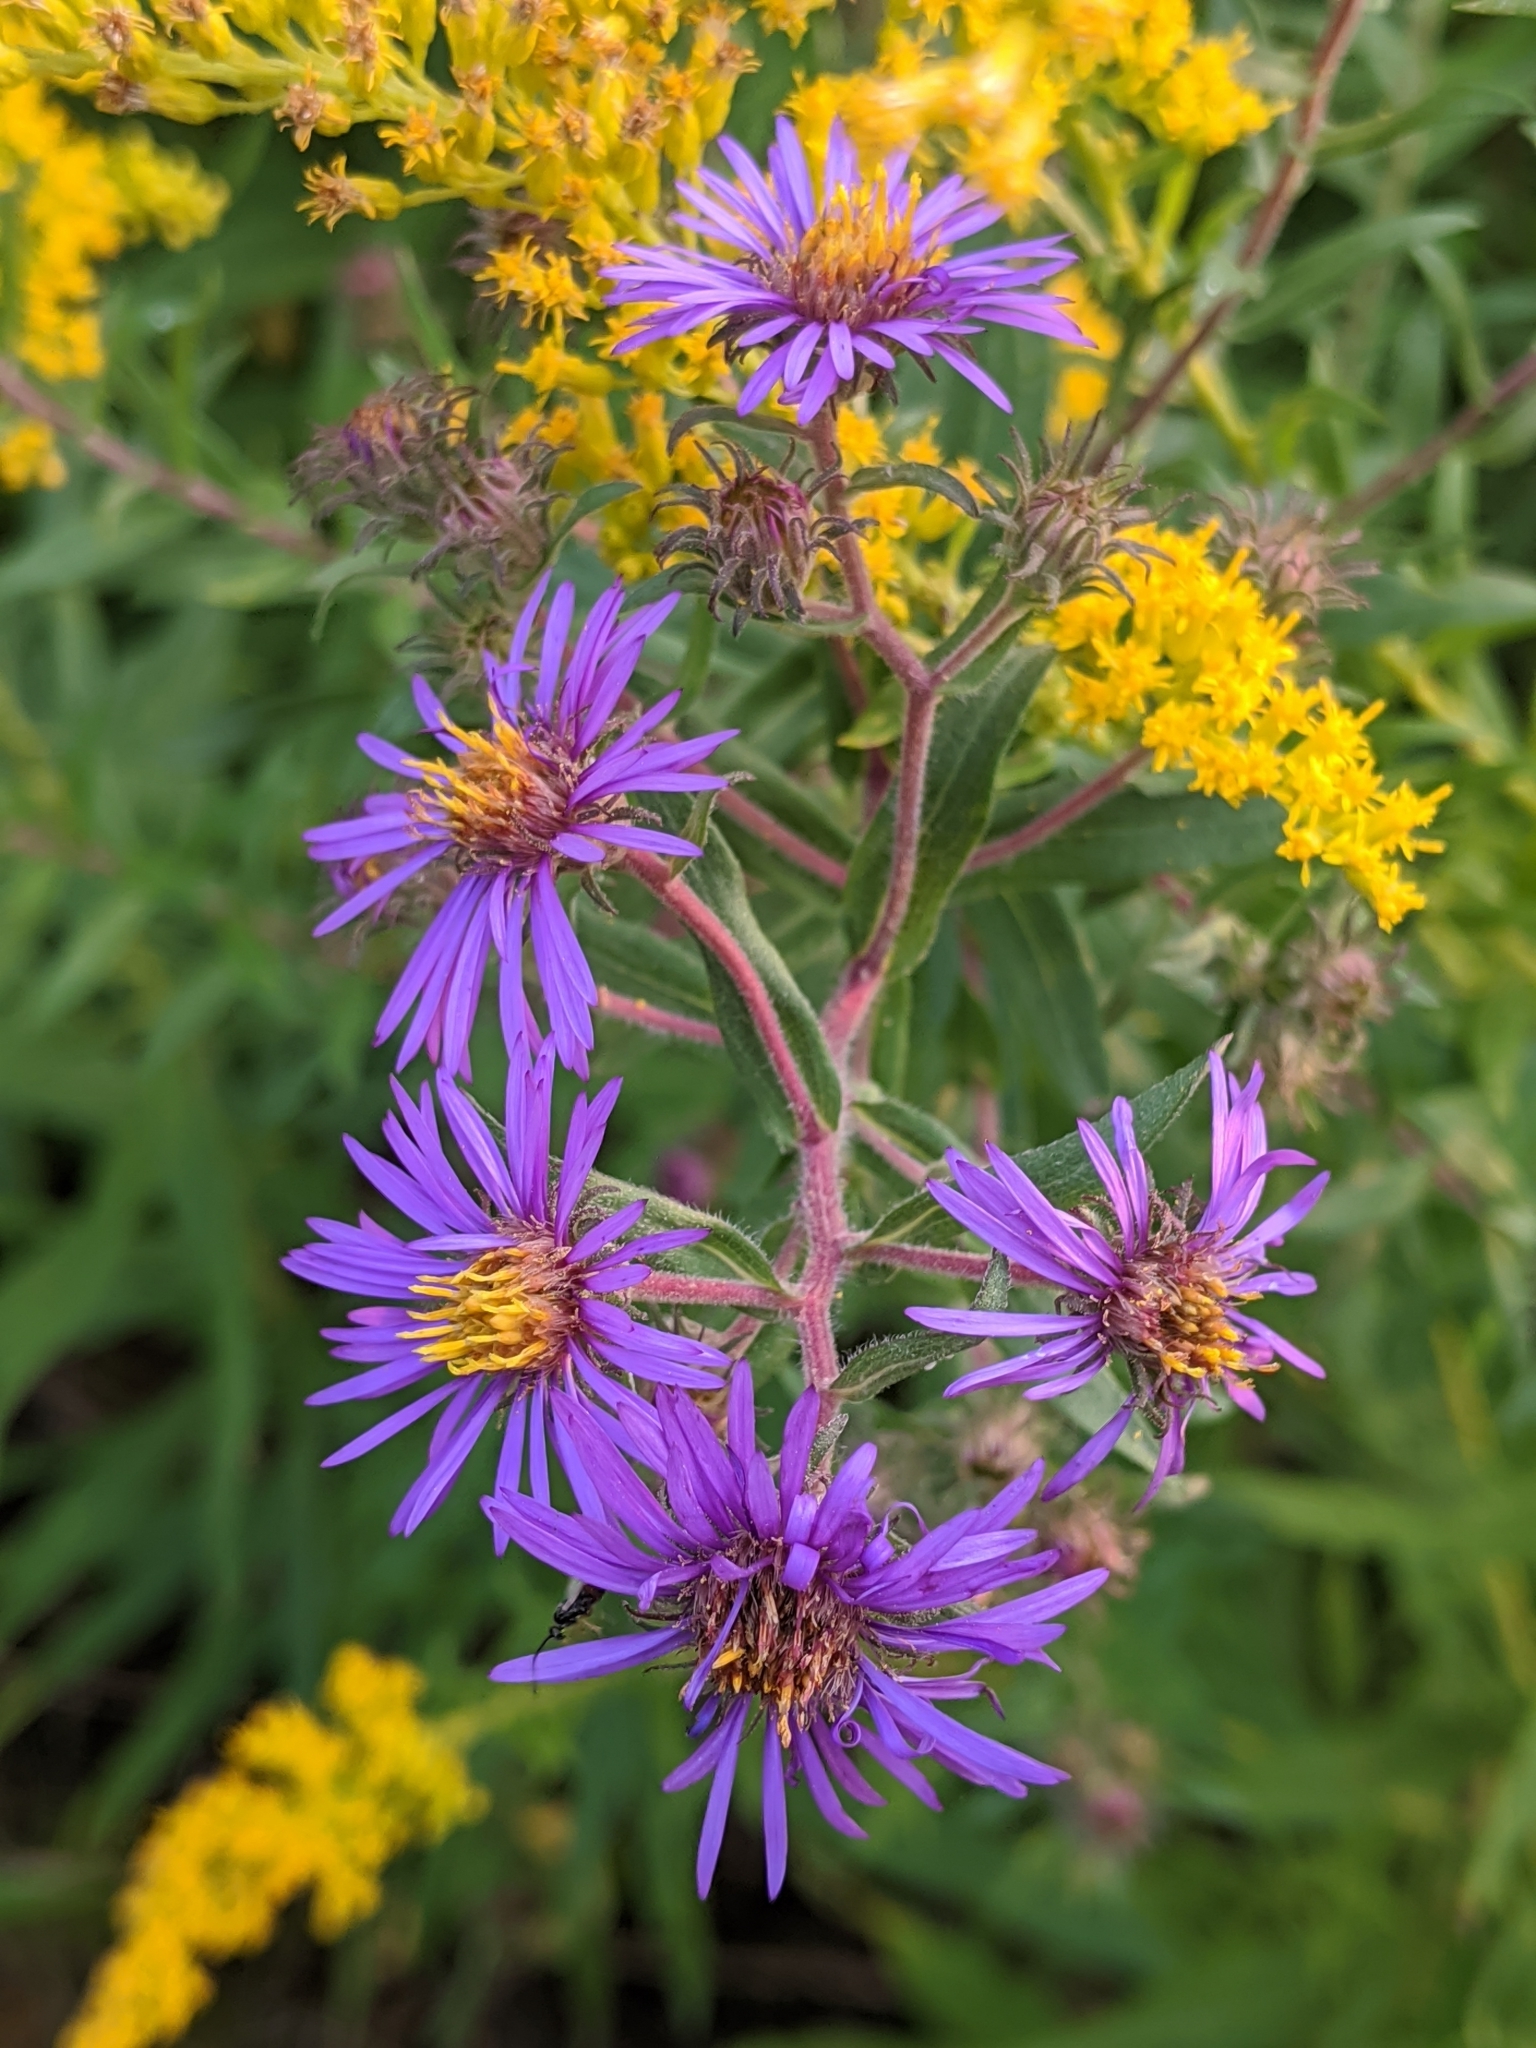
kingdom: Plantae
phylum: Tracheophyta
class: Magnoliopsida
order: Asterales
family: Asteraceae
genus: Symphyotrichum
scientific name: Symphyotrichum novae-angliae
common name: Michaelmas daisy
